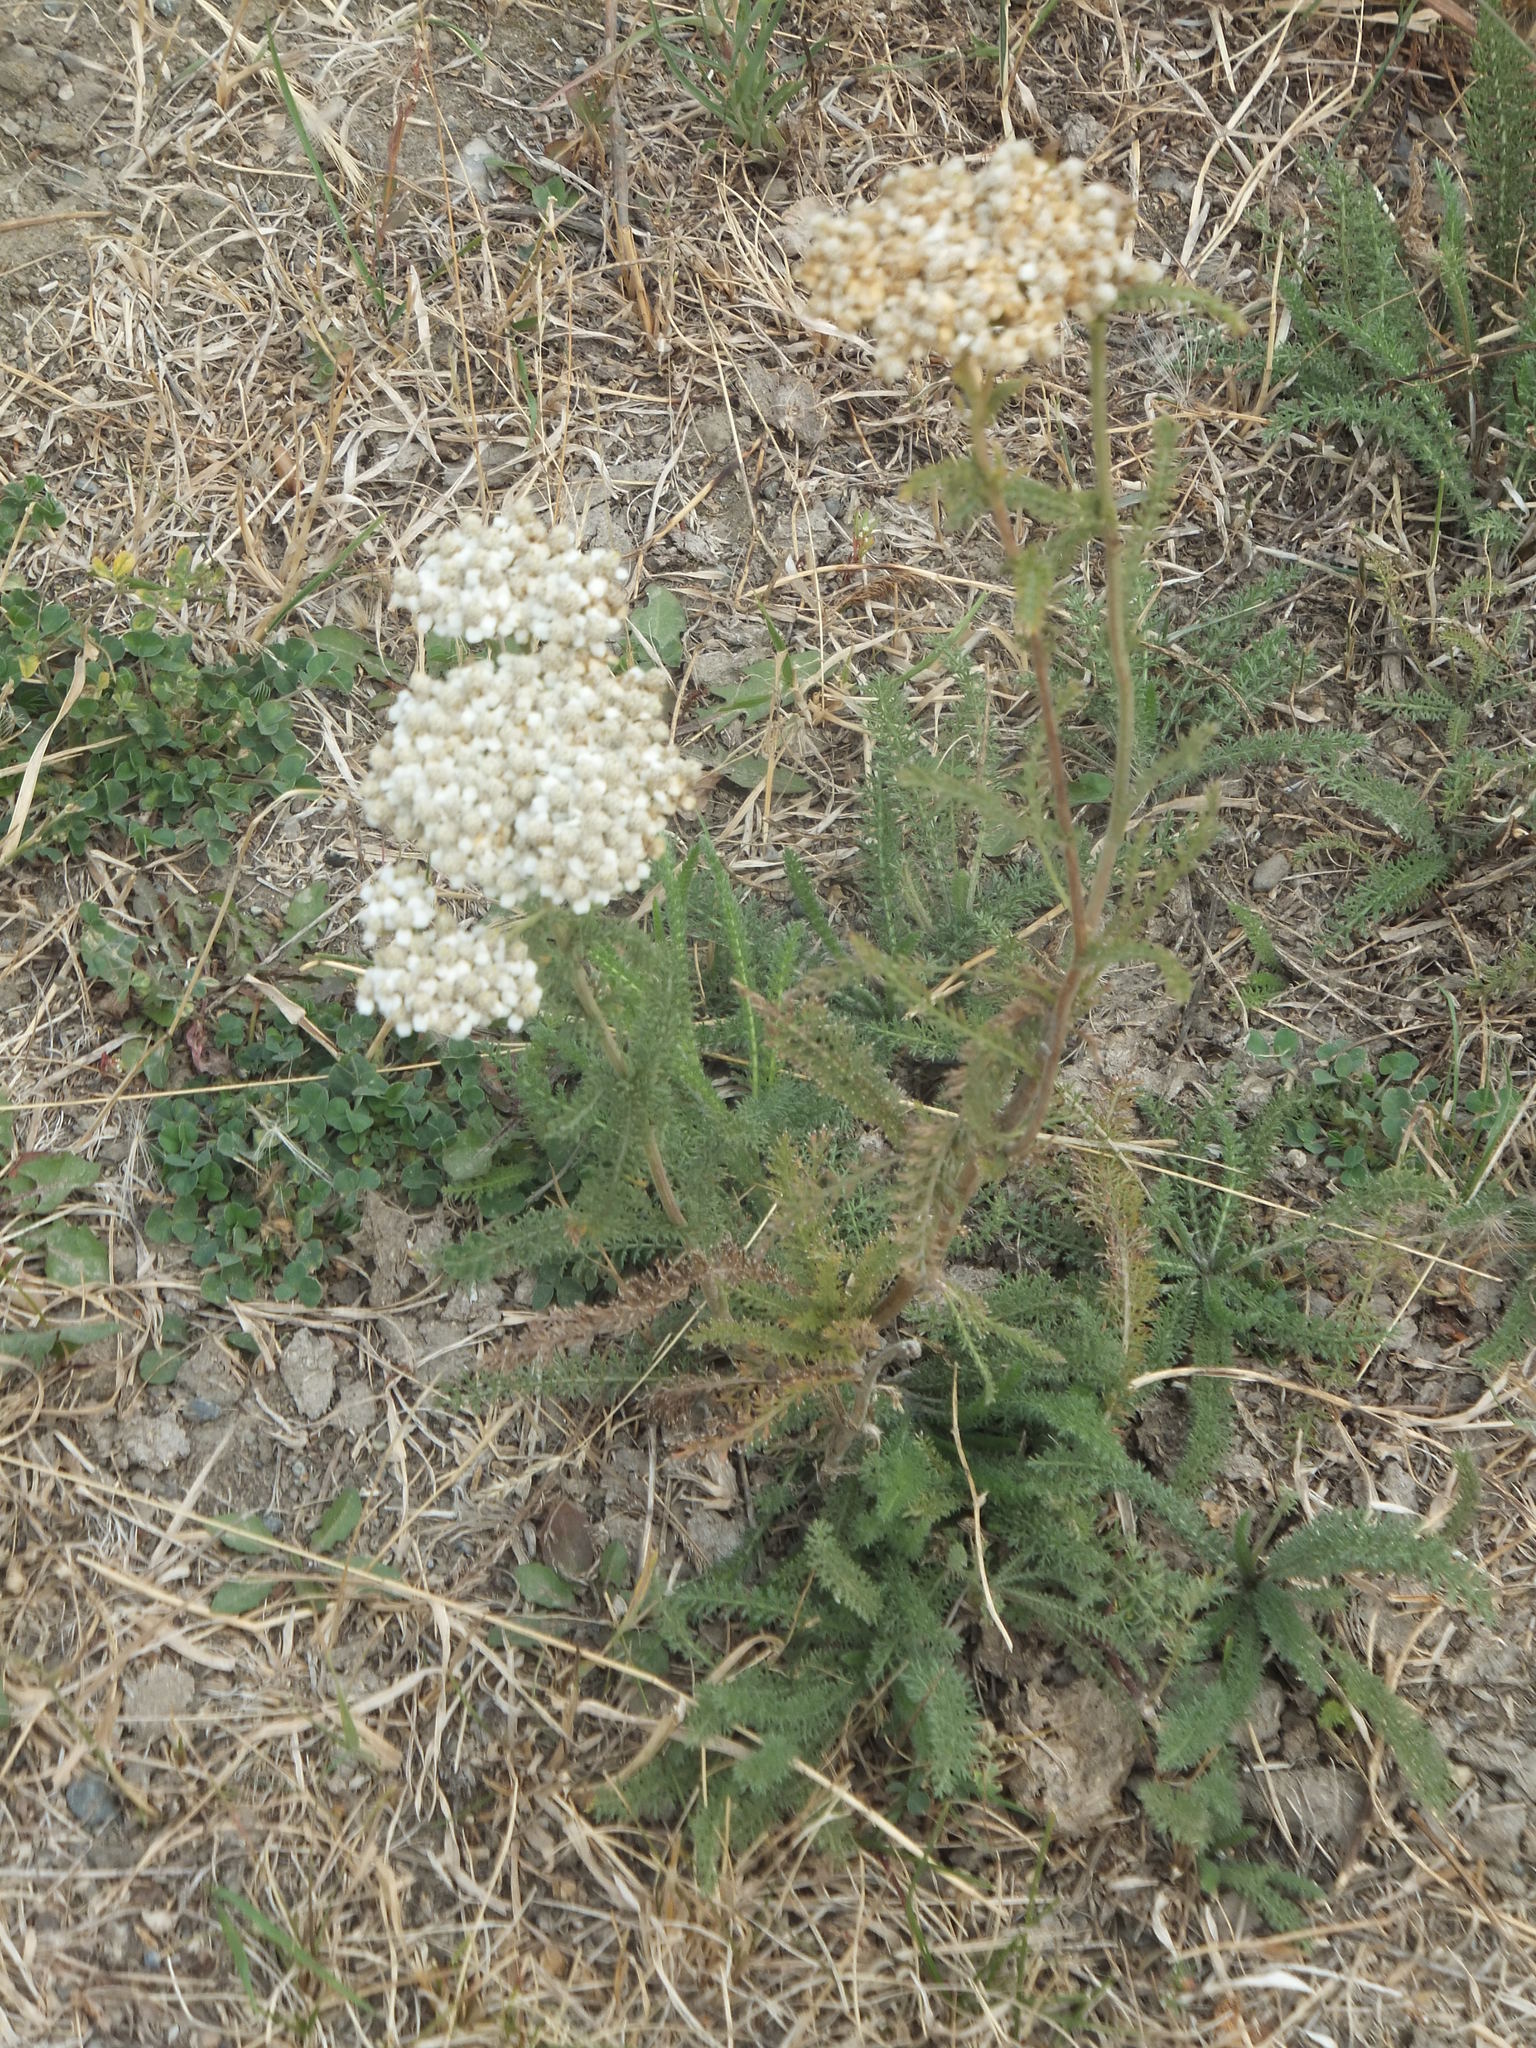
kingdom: Plantae
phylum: Tracheophyta
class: Magnoliopsida
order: Asterales
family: Asteraceae
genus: Achillea
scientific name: Achillea millefolium
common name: Yarrow
